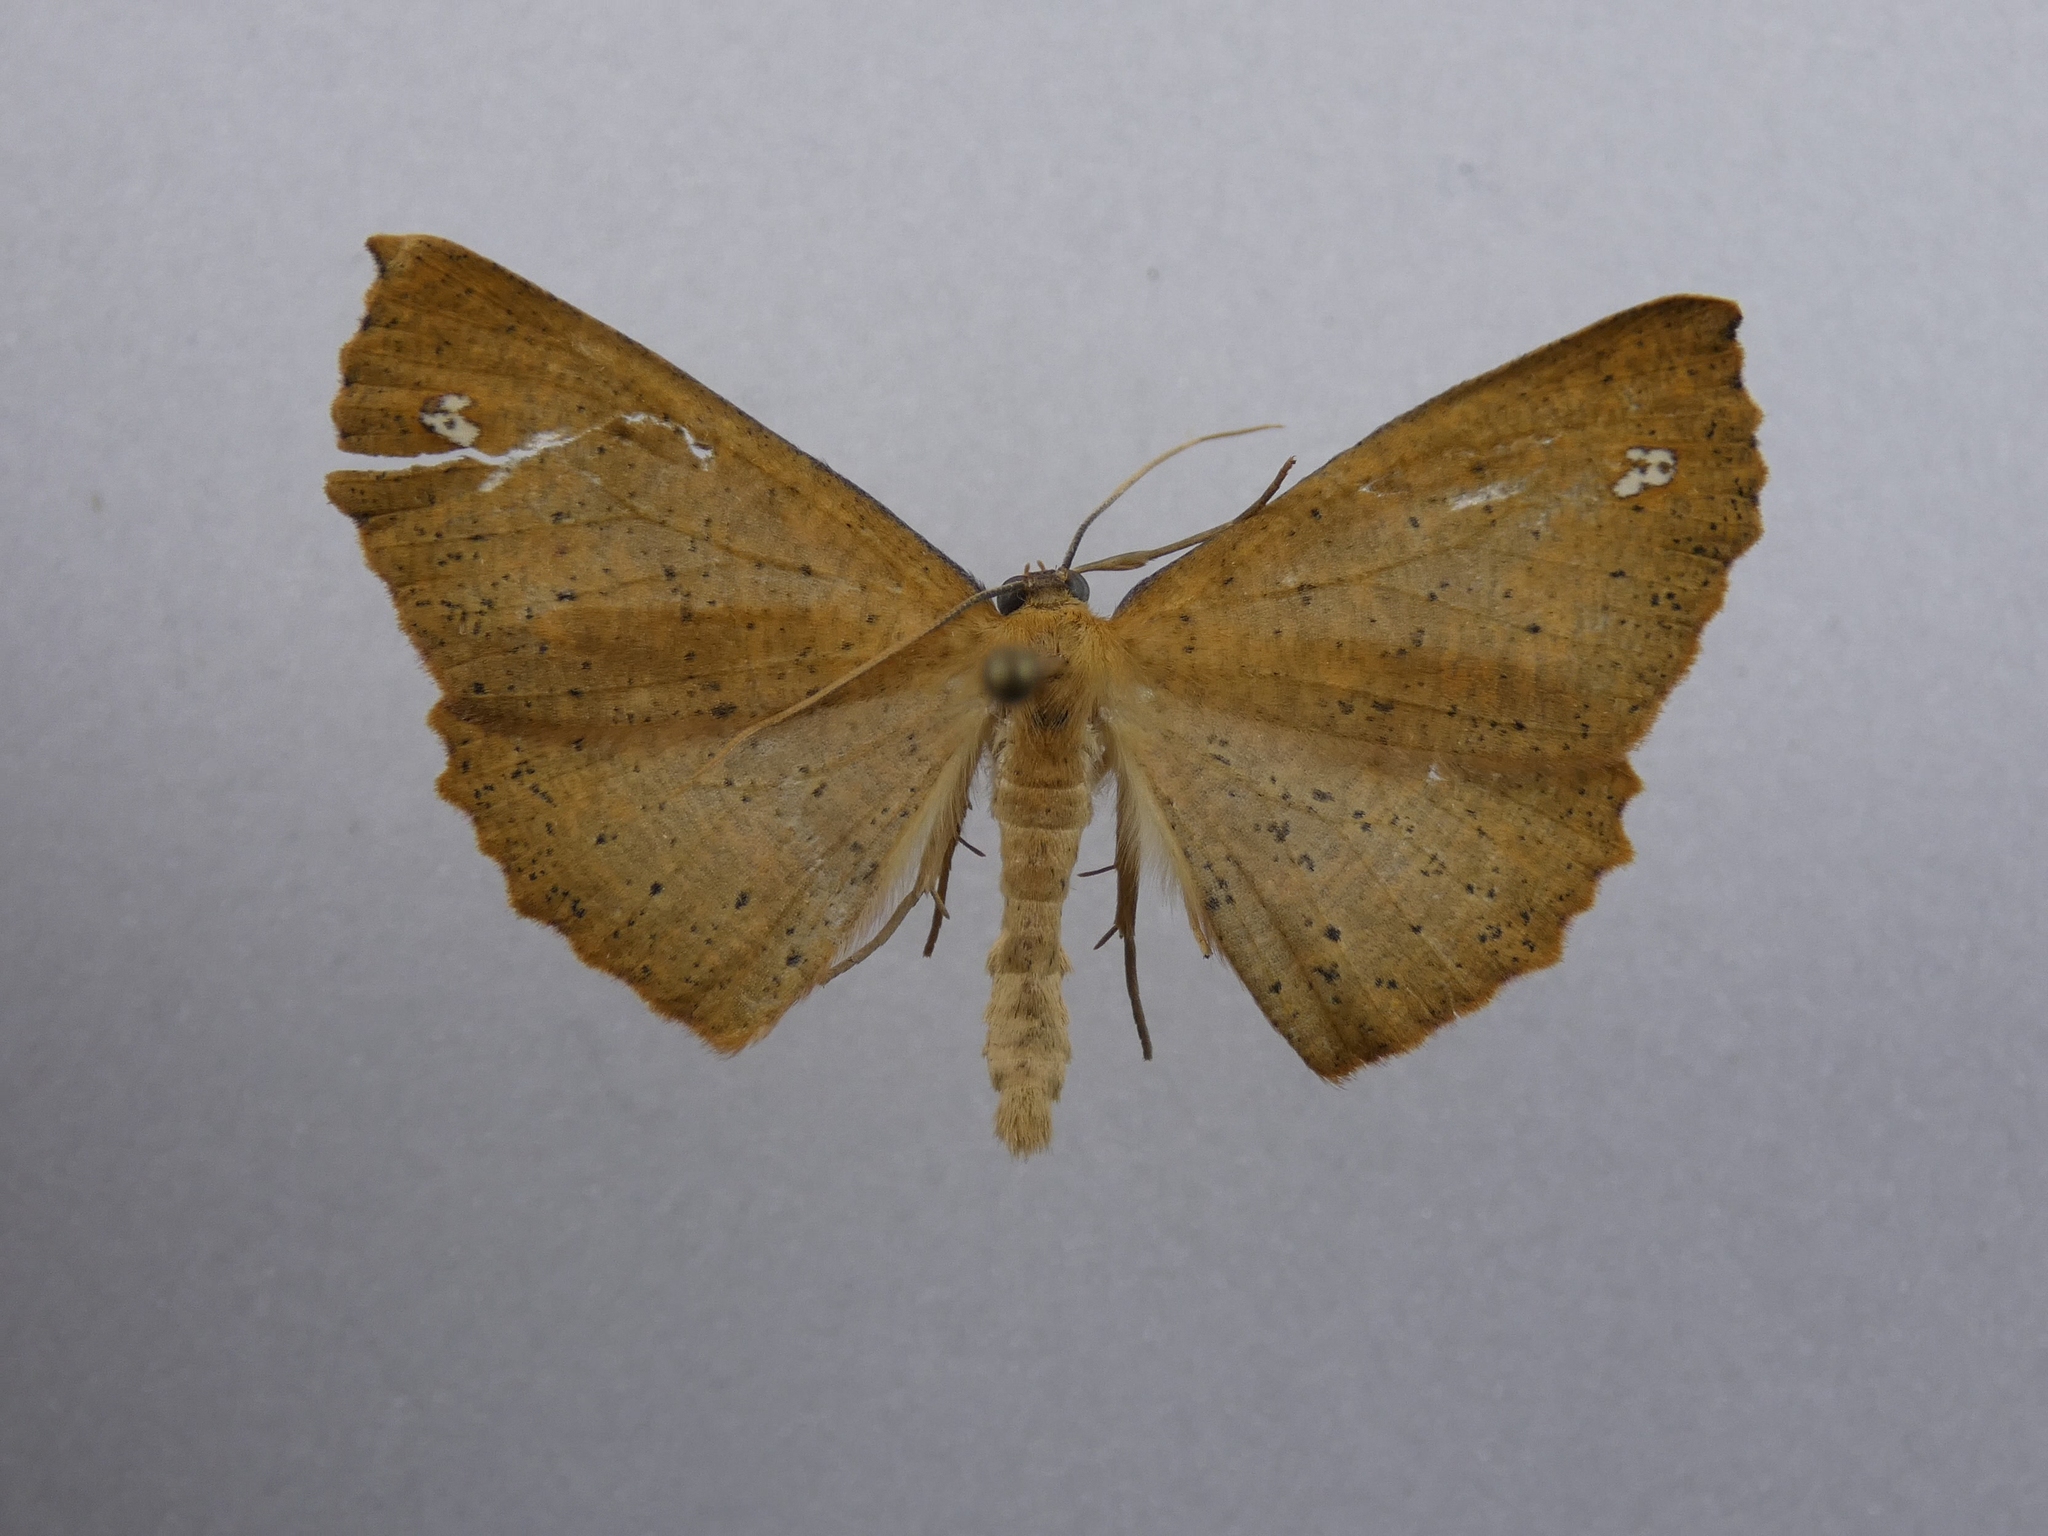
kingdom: Animalia
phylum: Arthropoda
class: Insecta
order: Lepidoptera
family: Geometridae
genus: Xyridacma
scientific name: Xyridacma ustaria
